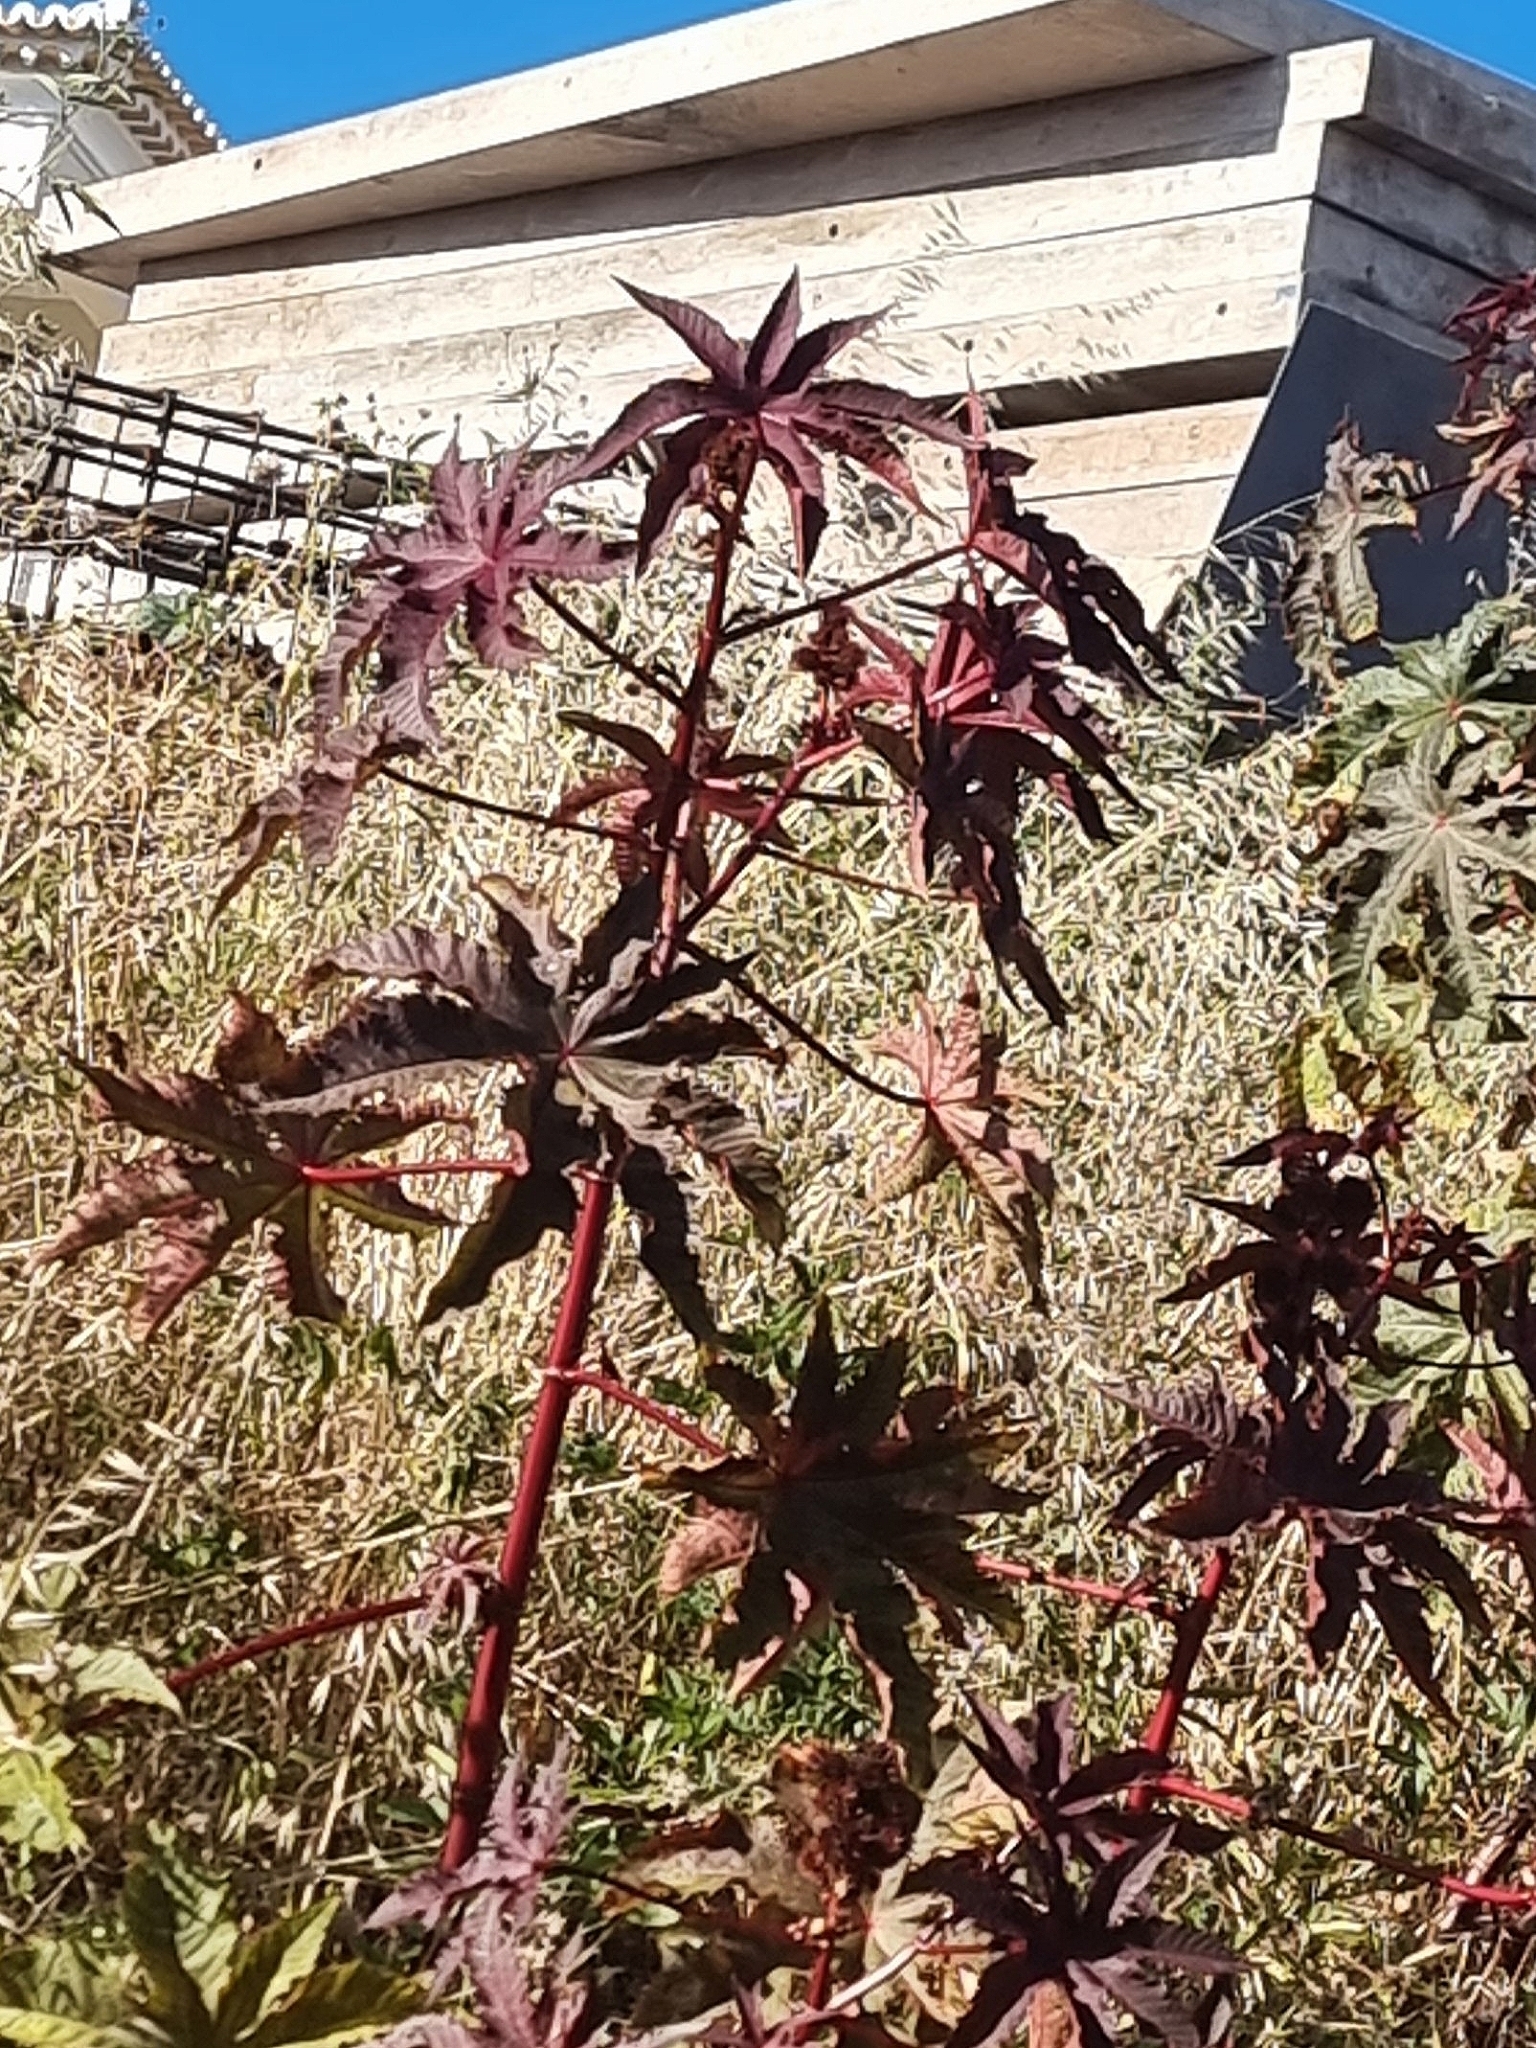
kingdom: Plantae
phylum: Tracheophyta
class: Magnoliopsida
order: Malpighiales
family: Euphorbiaceae
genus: Ricinus
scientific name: Ricinus communis
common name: Castor-oil-plant
